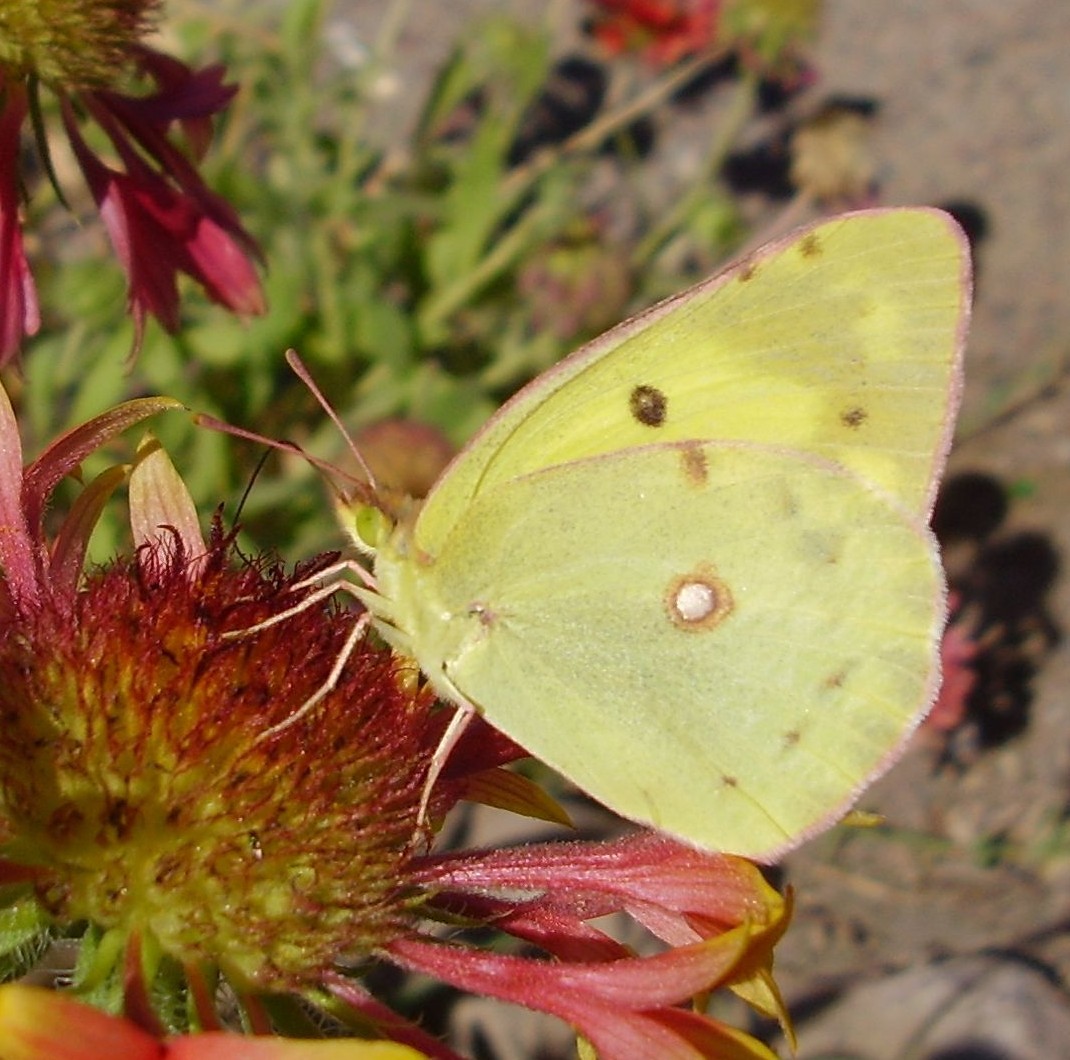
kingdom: Animalia
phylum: Arthropoda
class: Insecta
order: Lepidoptera
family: Pieridae
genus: Colias
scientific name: Colias erate
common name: Eastern pale clouded yellow
